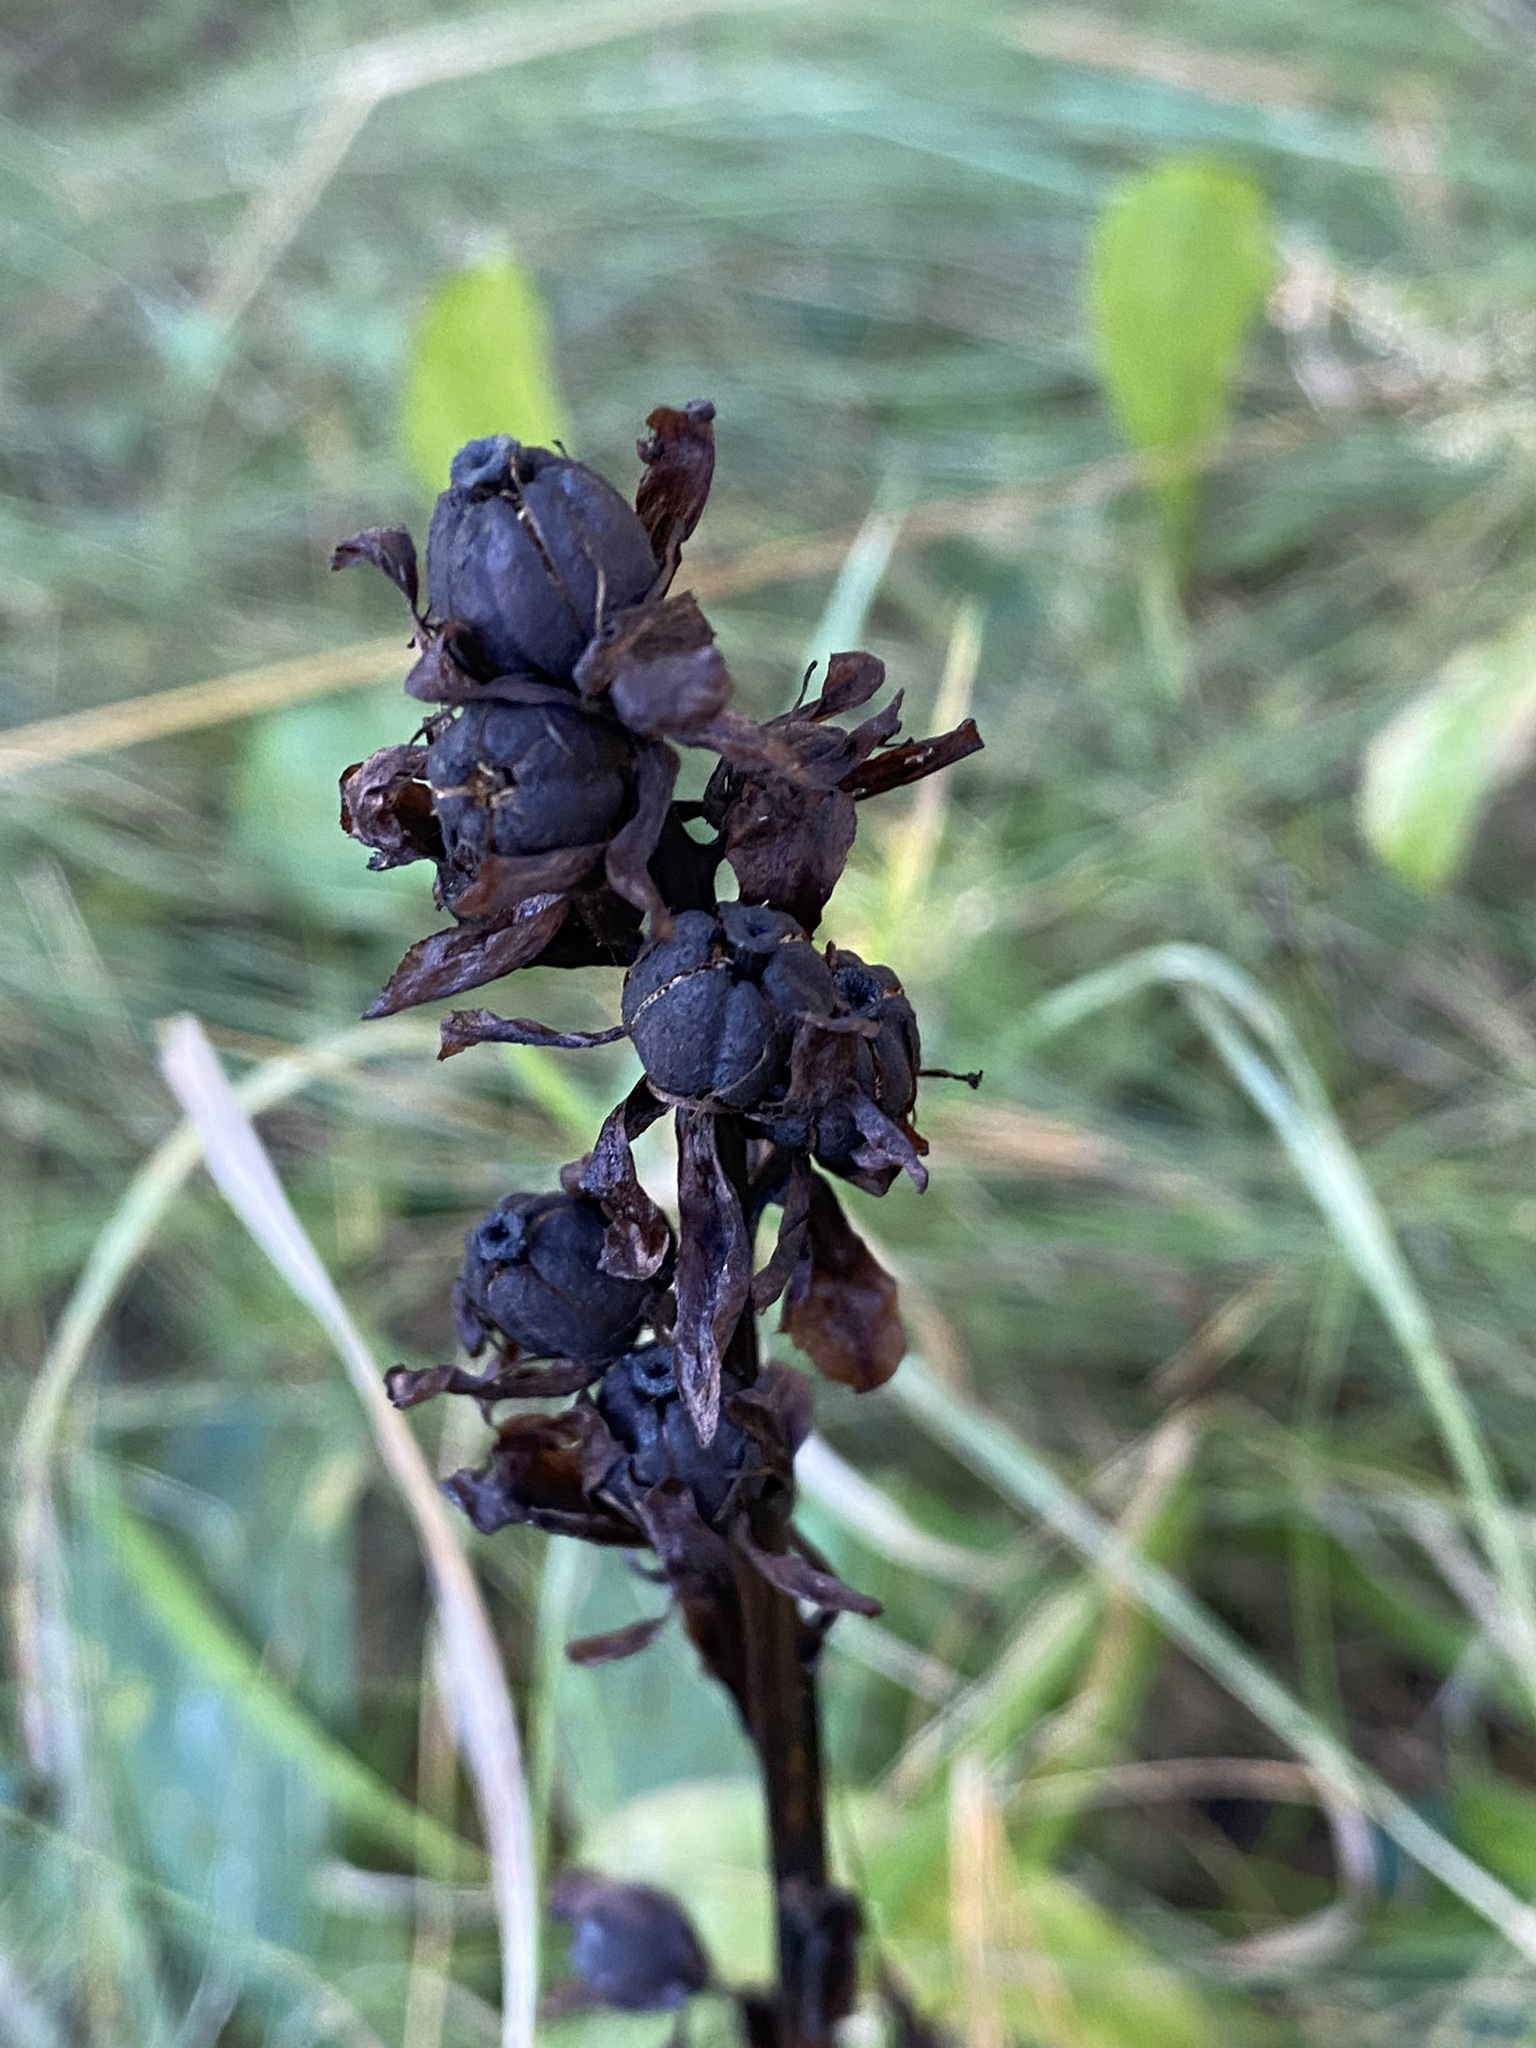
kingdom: Plantae
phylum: Tracheophyta
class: Magnoliopsida
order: Ericales
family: Ericaceae
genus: Hypopitys
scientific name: Hypopitys monotropa
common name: Yellow bird's-nest
